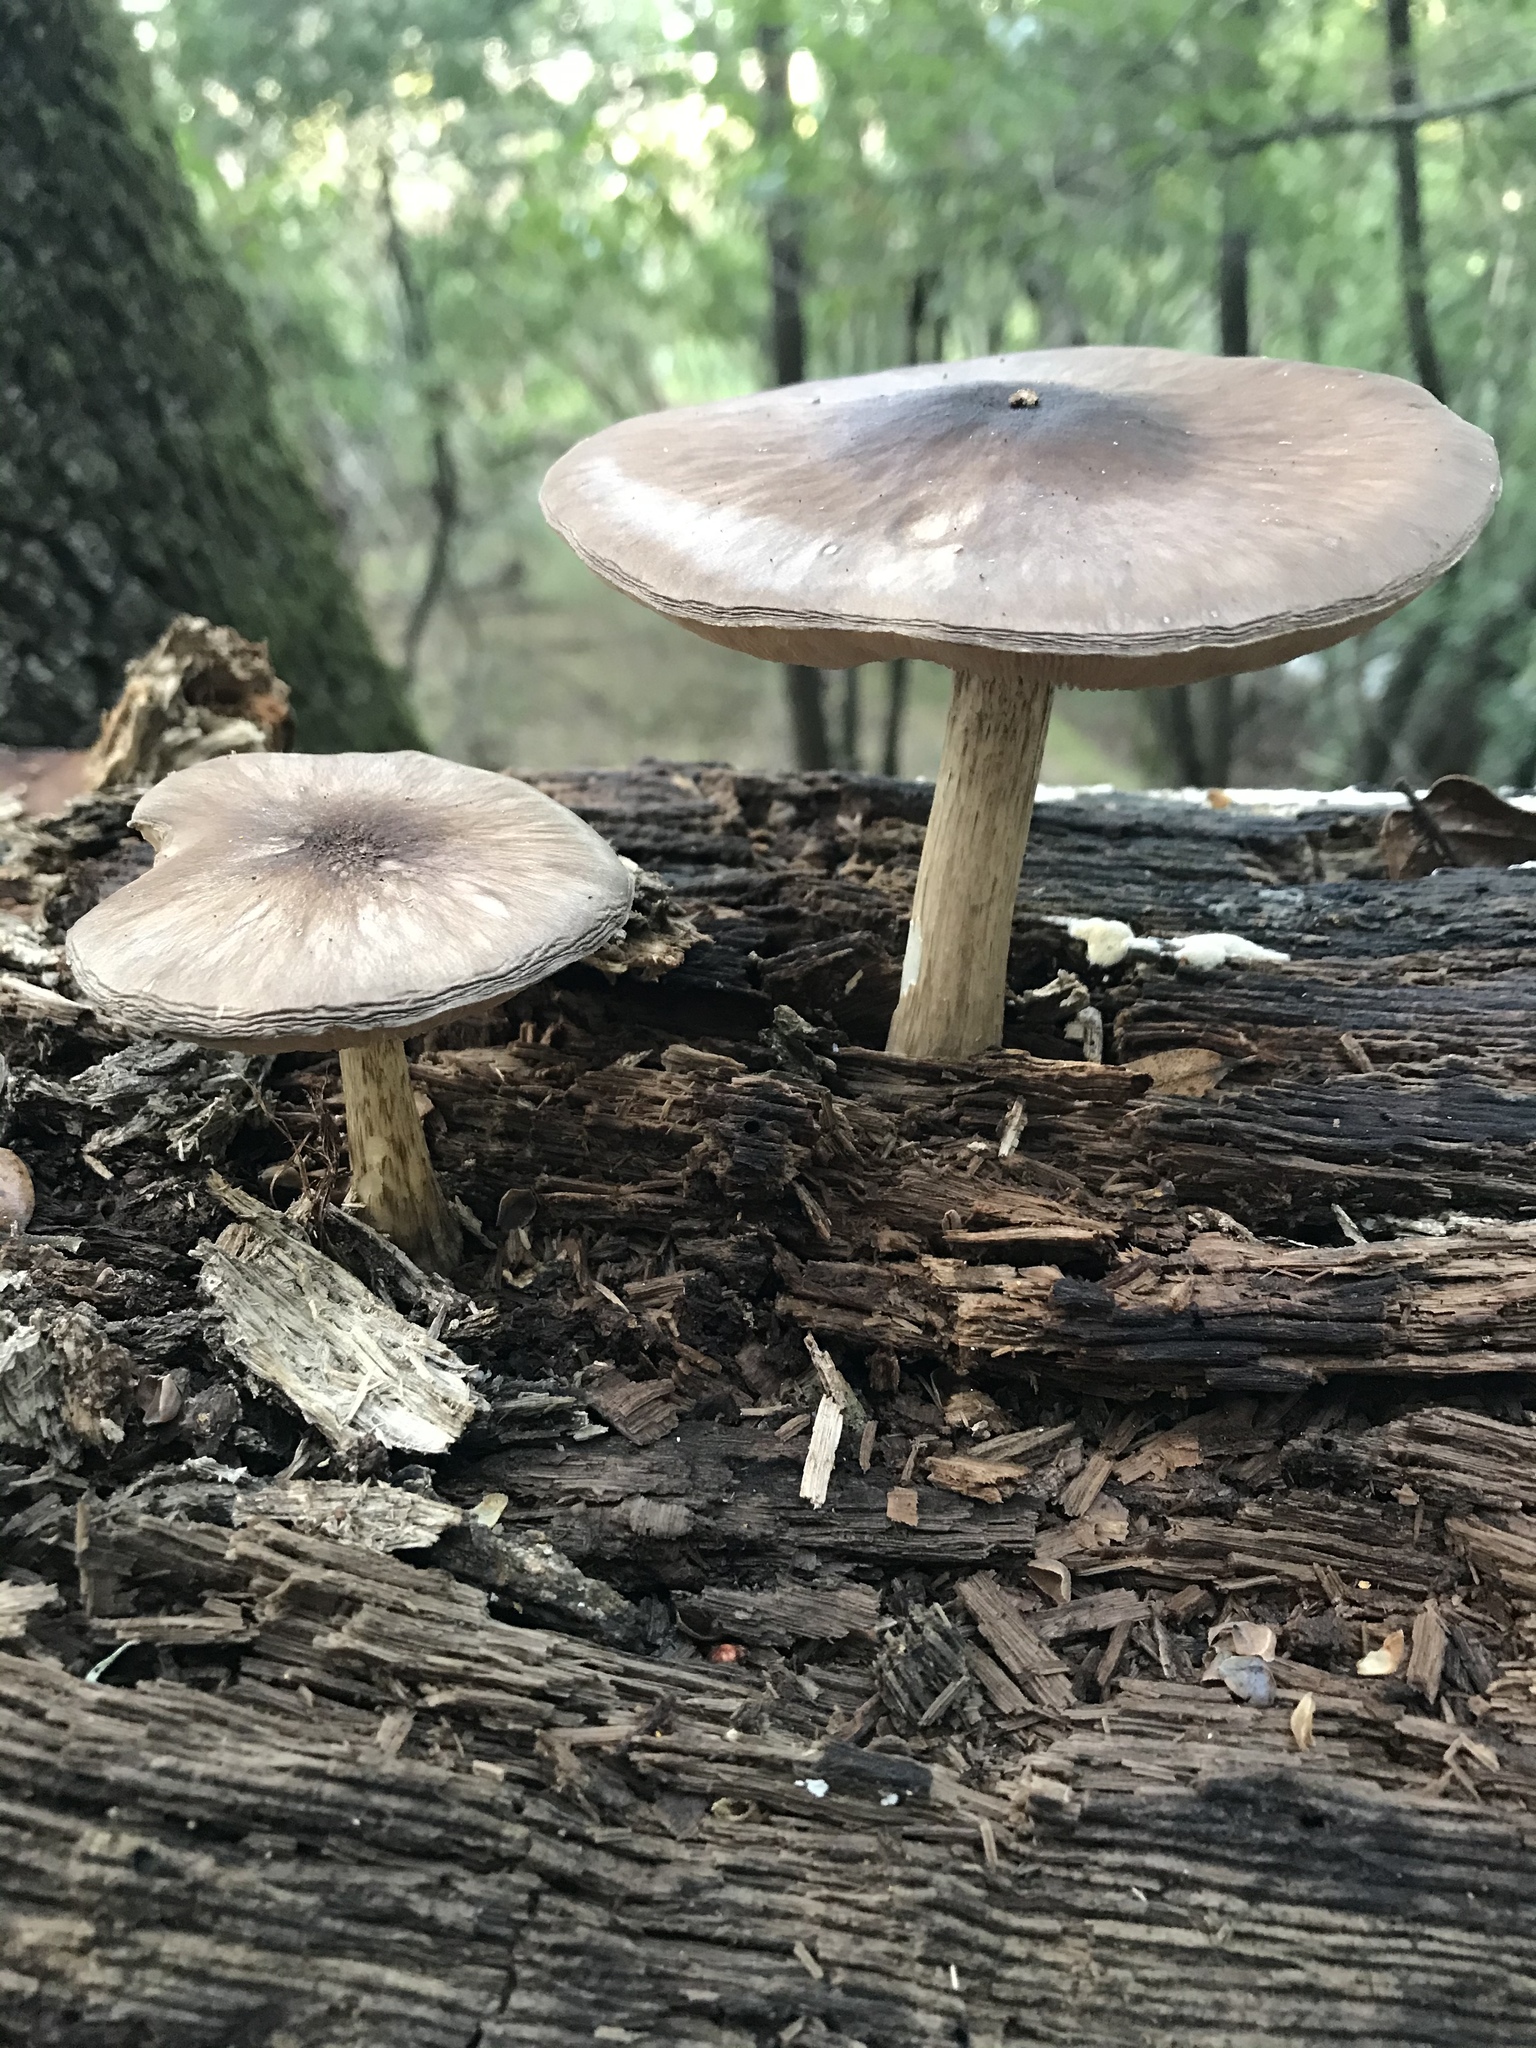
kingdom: Fungi
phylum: Basidiomycota
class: Agaricomycetes
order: Agaricales
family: Pluteaceae
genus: Pluteus
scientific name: Pluteus exilis
